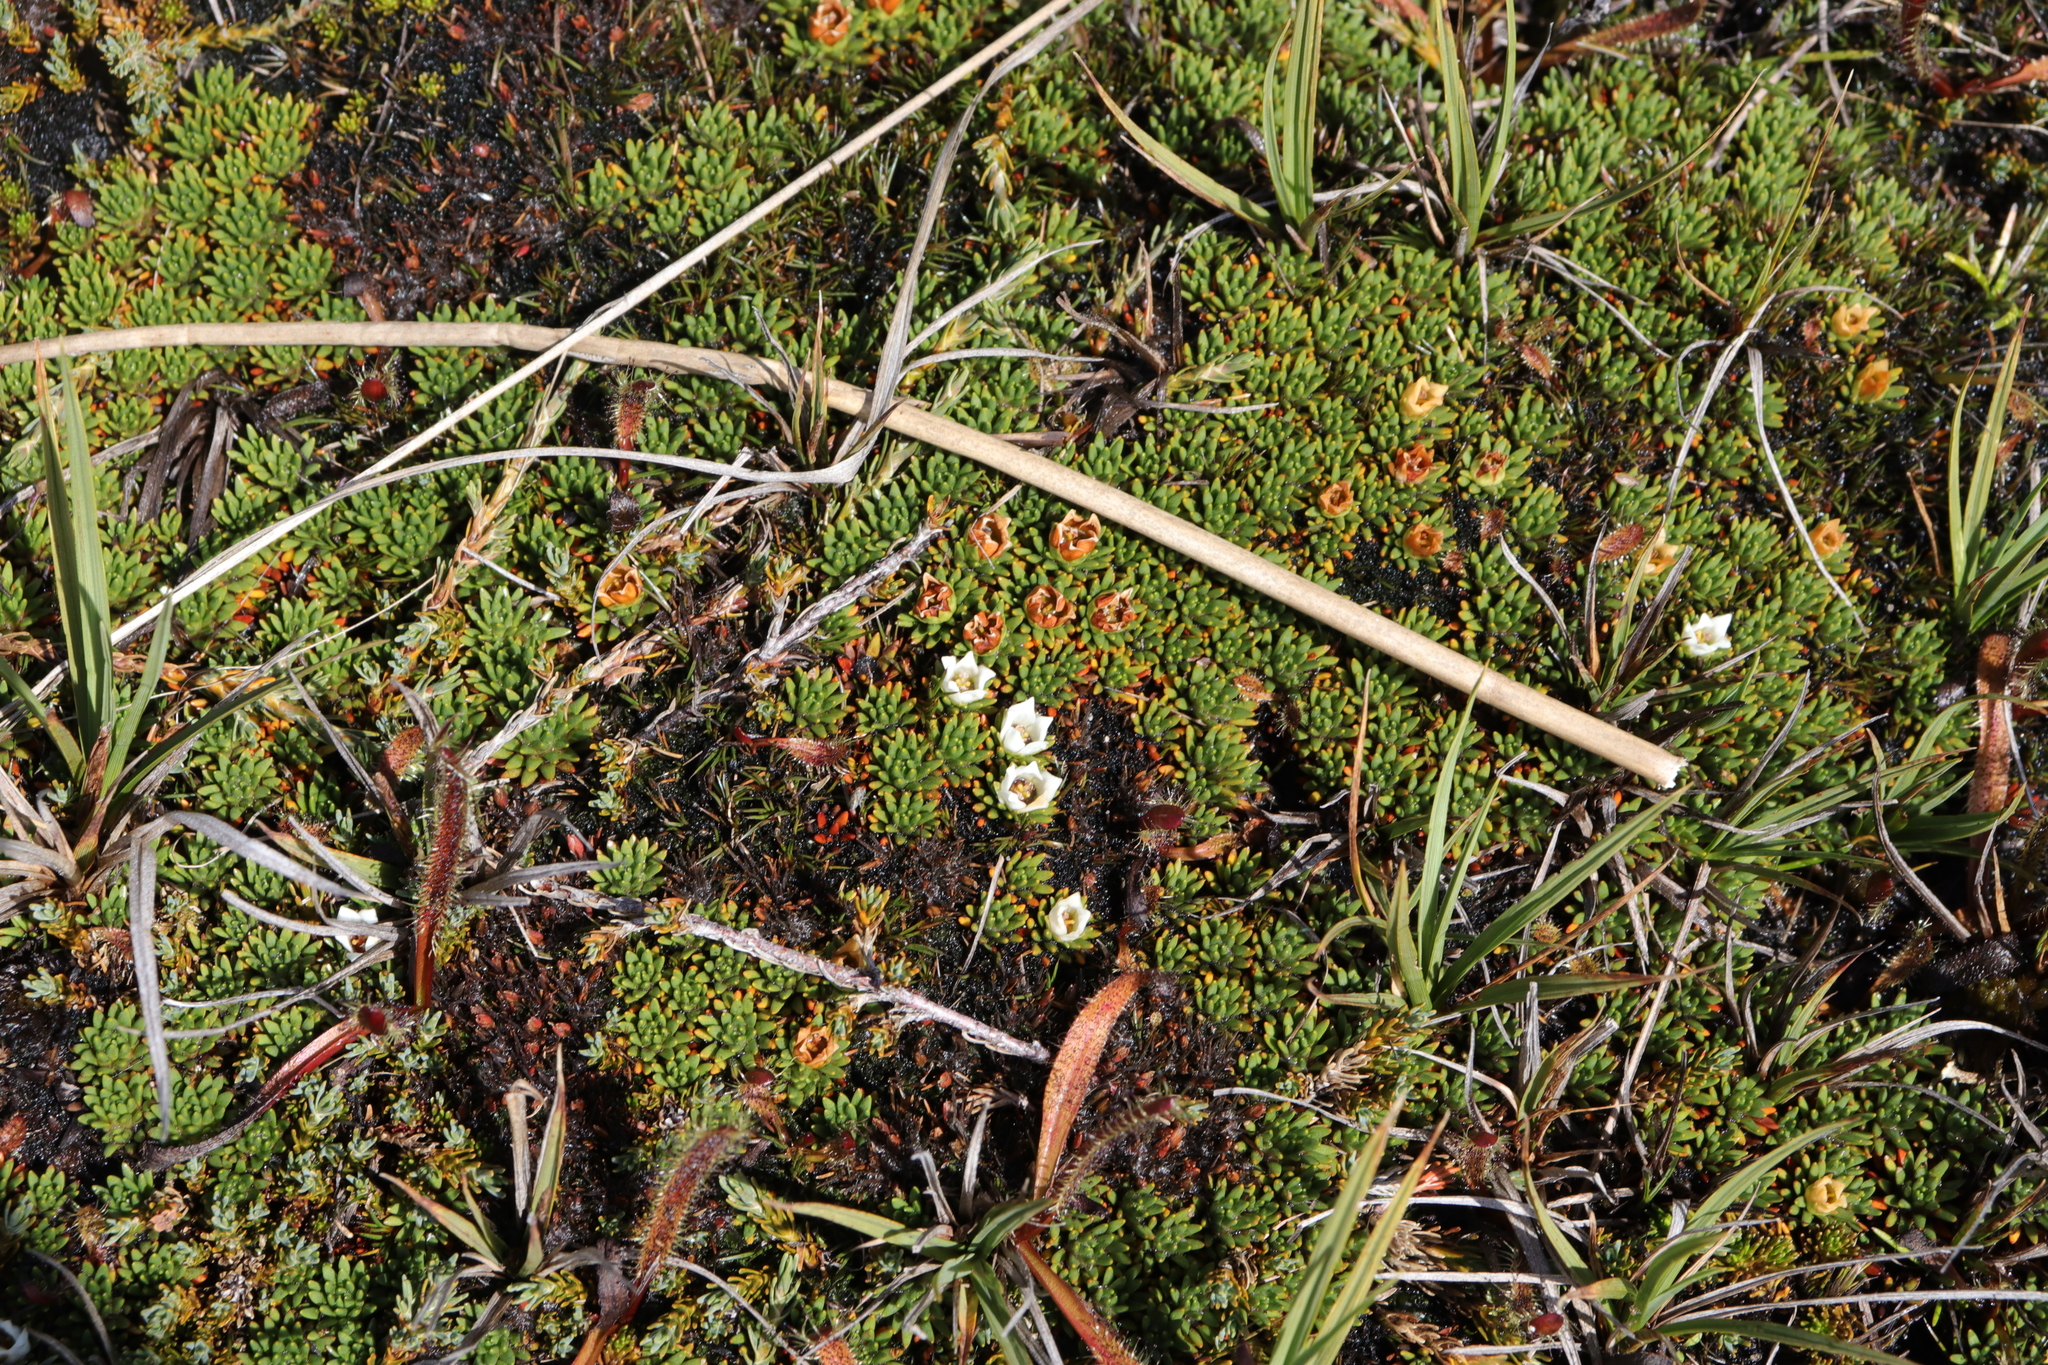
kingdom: Plantae
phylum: Tracheophyta
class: Magnoliopsida
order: Asterales
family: Stylidiaceae
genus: Donatia
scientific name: Donatia novae-zelandiae
